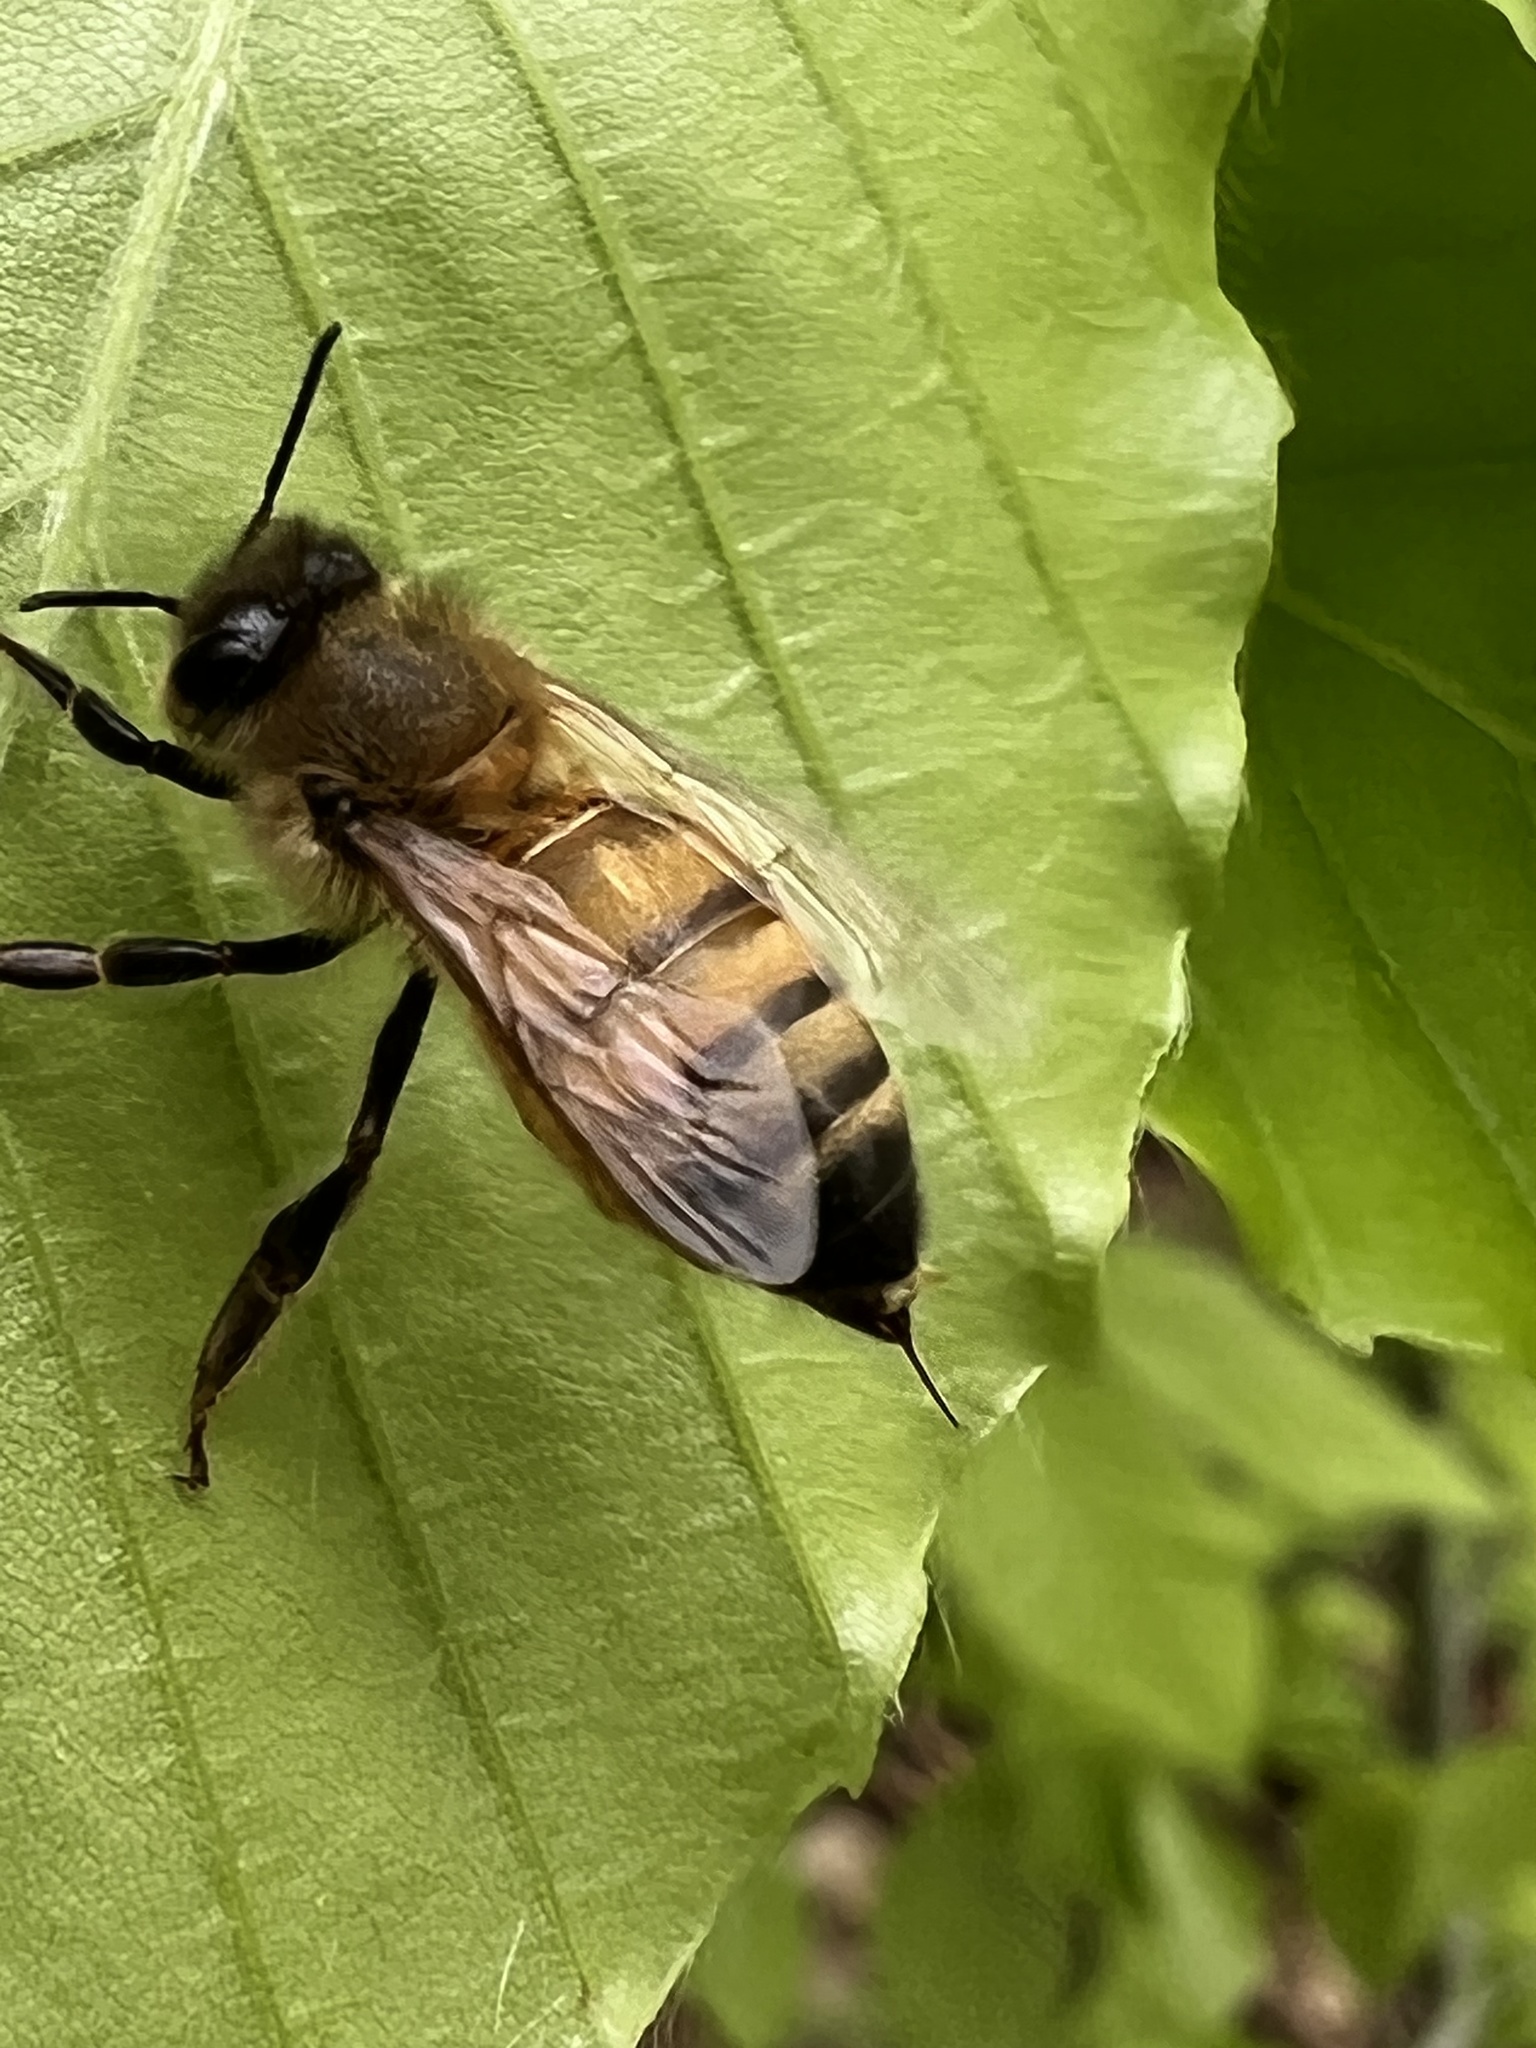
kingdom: Animalia
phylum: Arthropoda
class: Insecta
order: Hymenoptera
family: Apidae
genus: Apis
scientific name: Apis mellifera
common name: Honey bee
